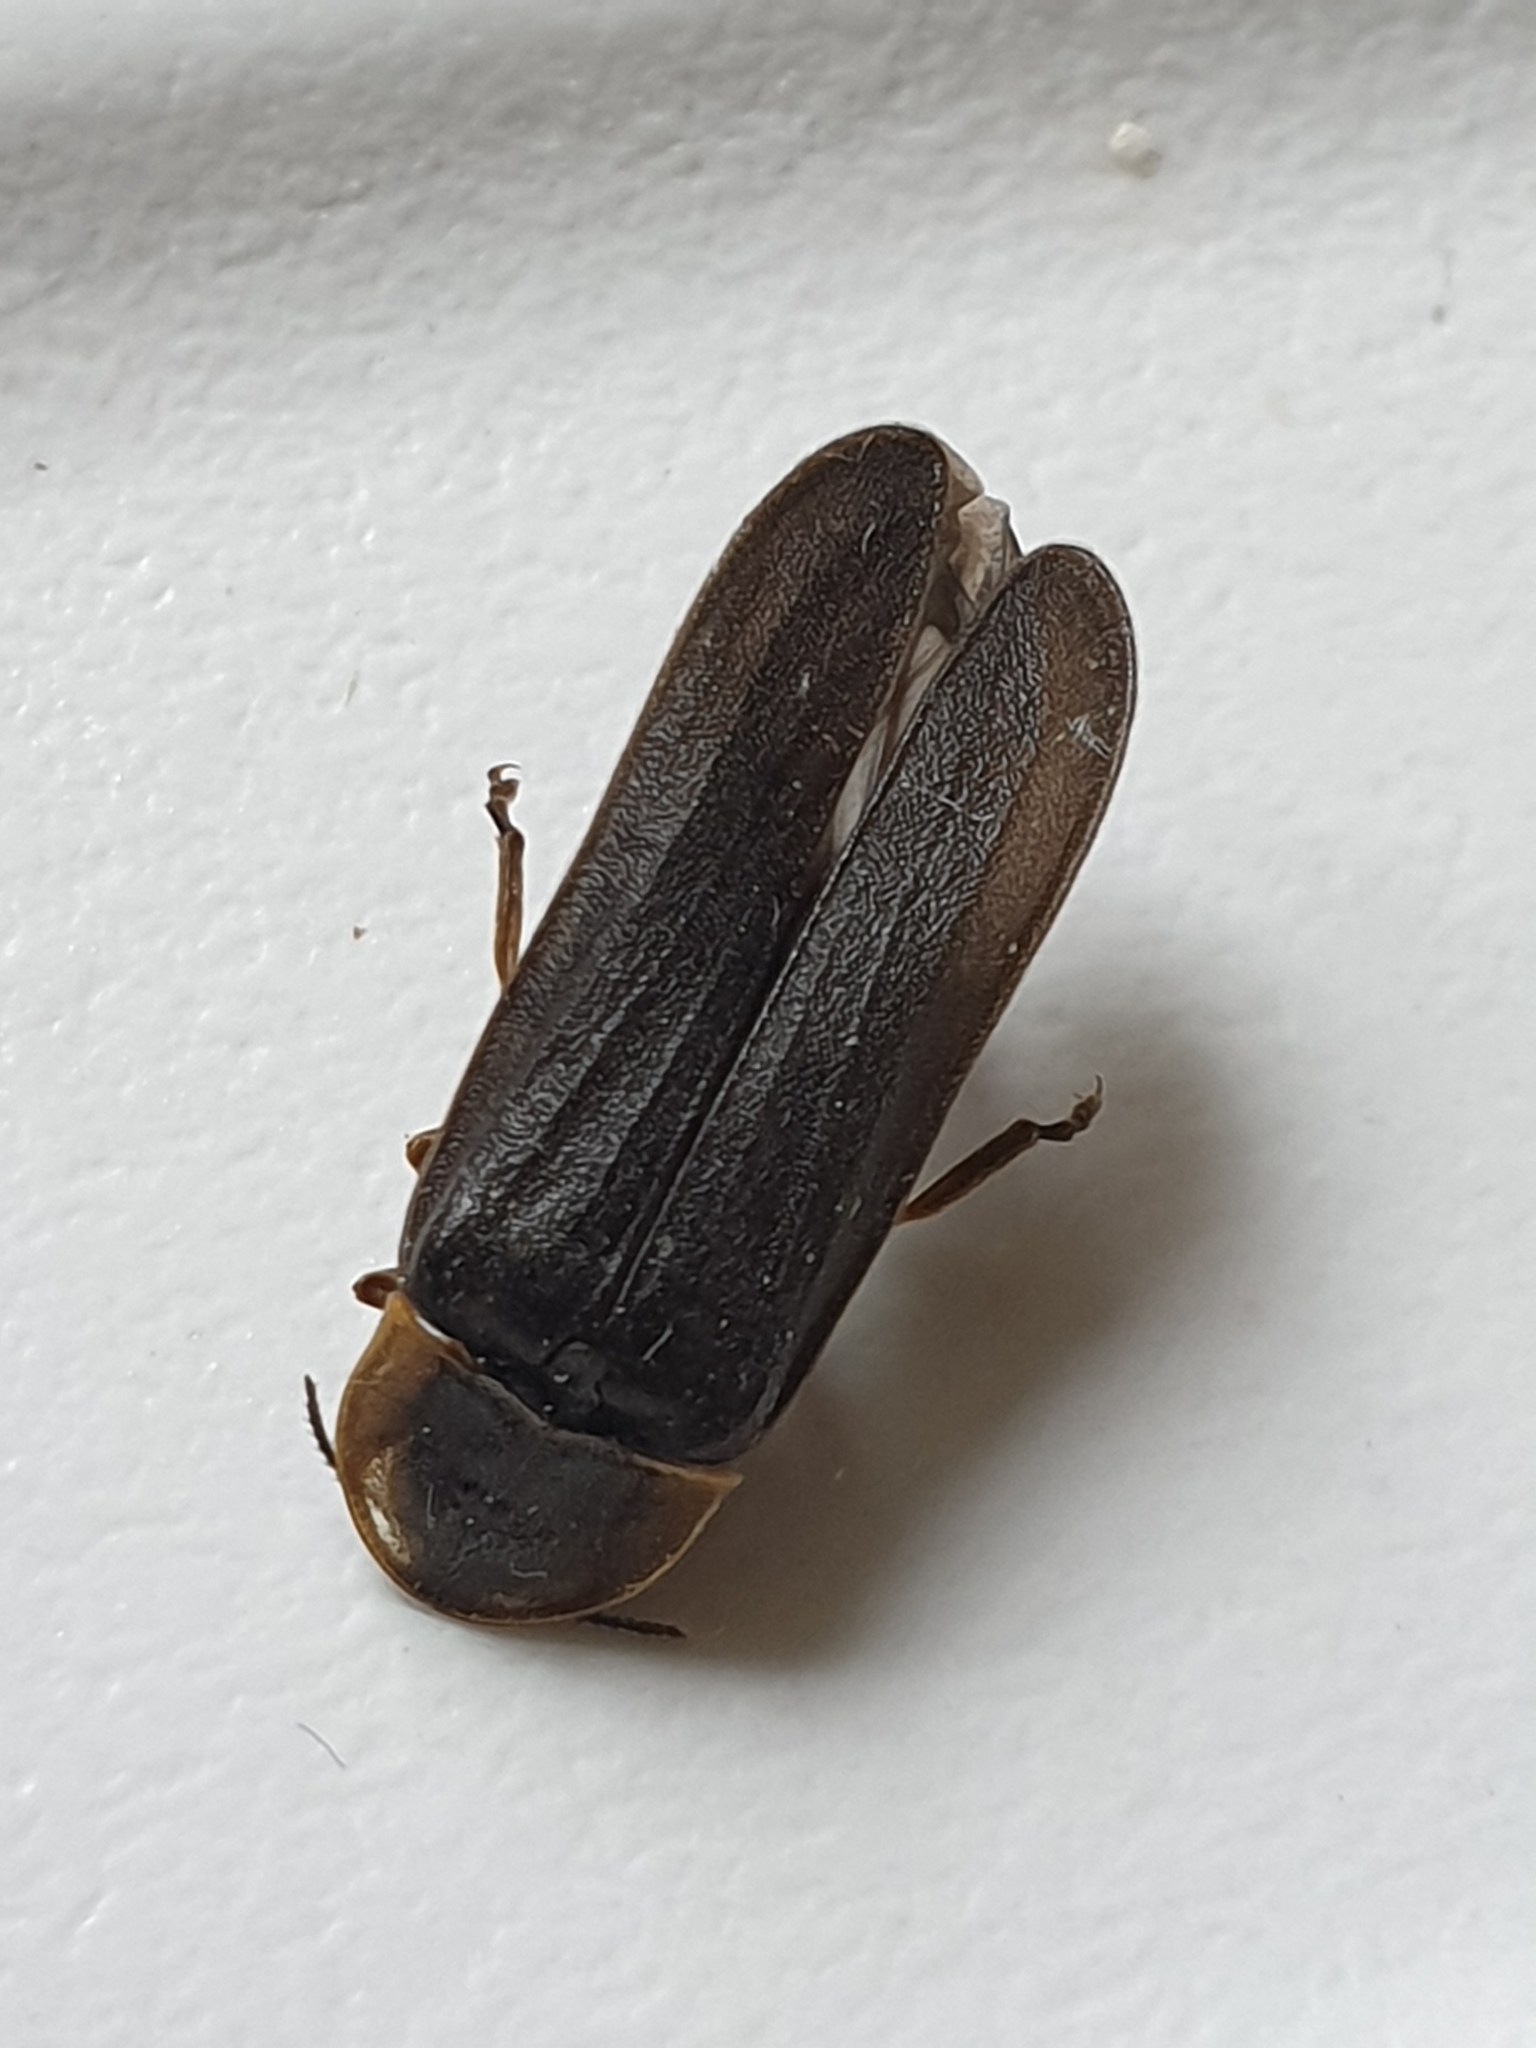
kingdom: Animalia
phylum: Arthropoda
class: Insecta
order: Coleoptera
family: Lampyridae
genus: Lampyris
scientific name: Lampyris noctiluca
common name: Glow-worm
